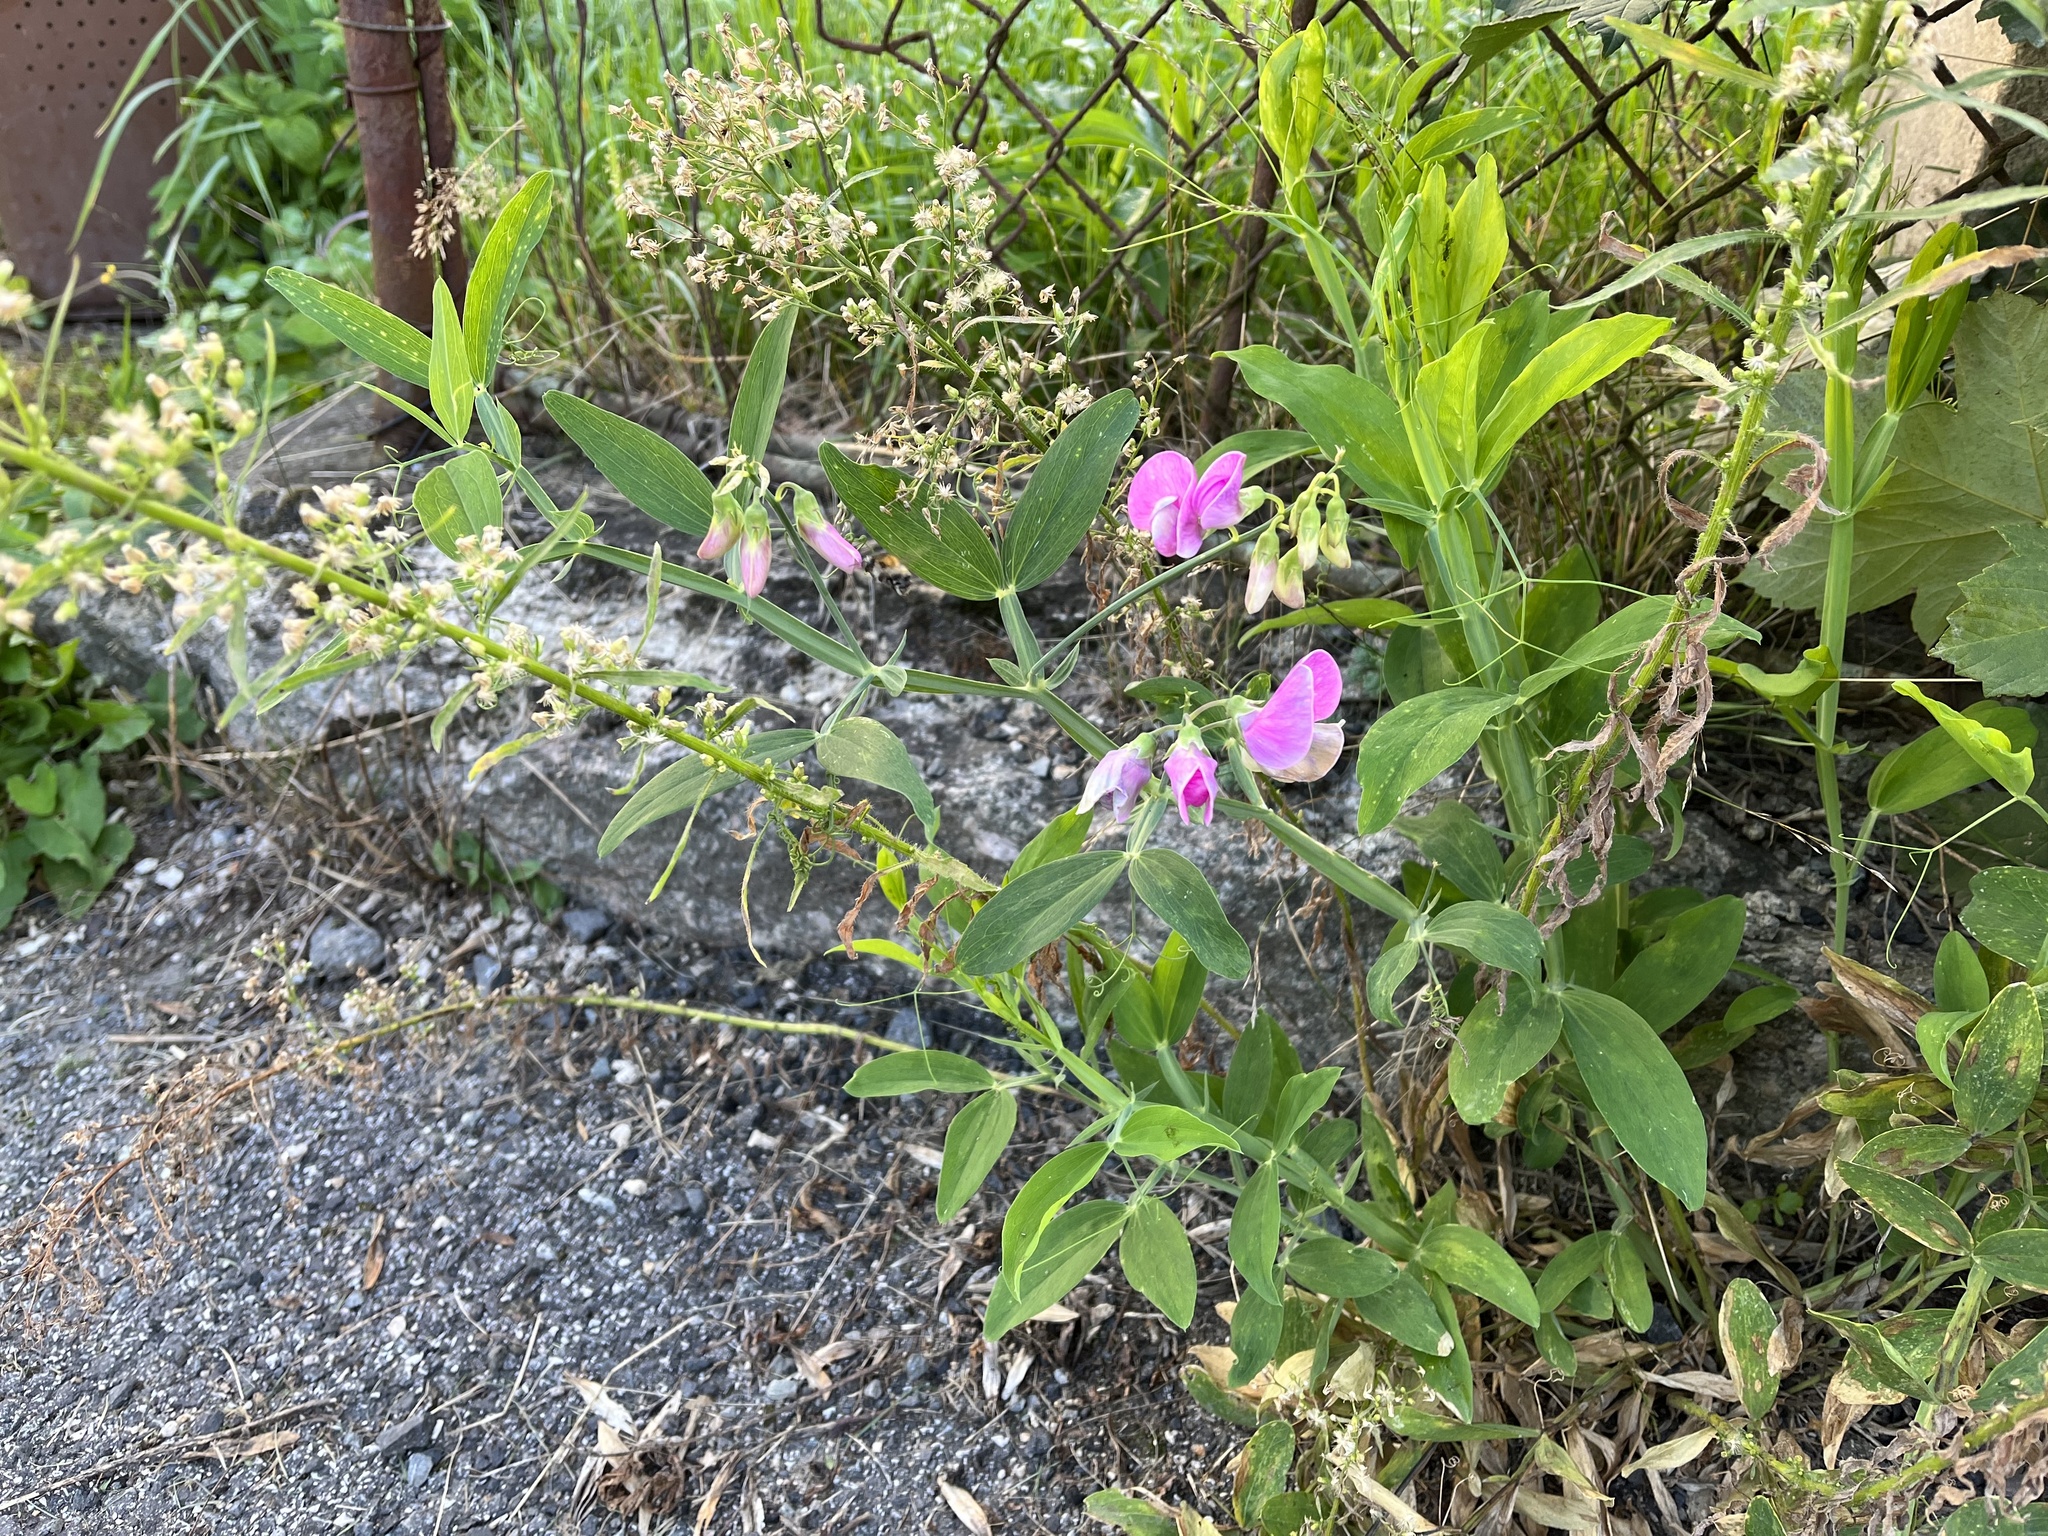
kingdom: Plantae
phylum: Tracheophyta
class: Magnoliopsida
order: Fabales
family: Fabaceae
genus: Lathyrus
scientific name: Lathyrus latifolius
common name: Perennial pea
